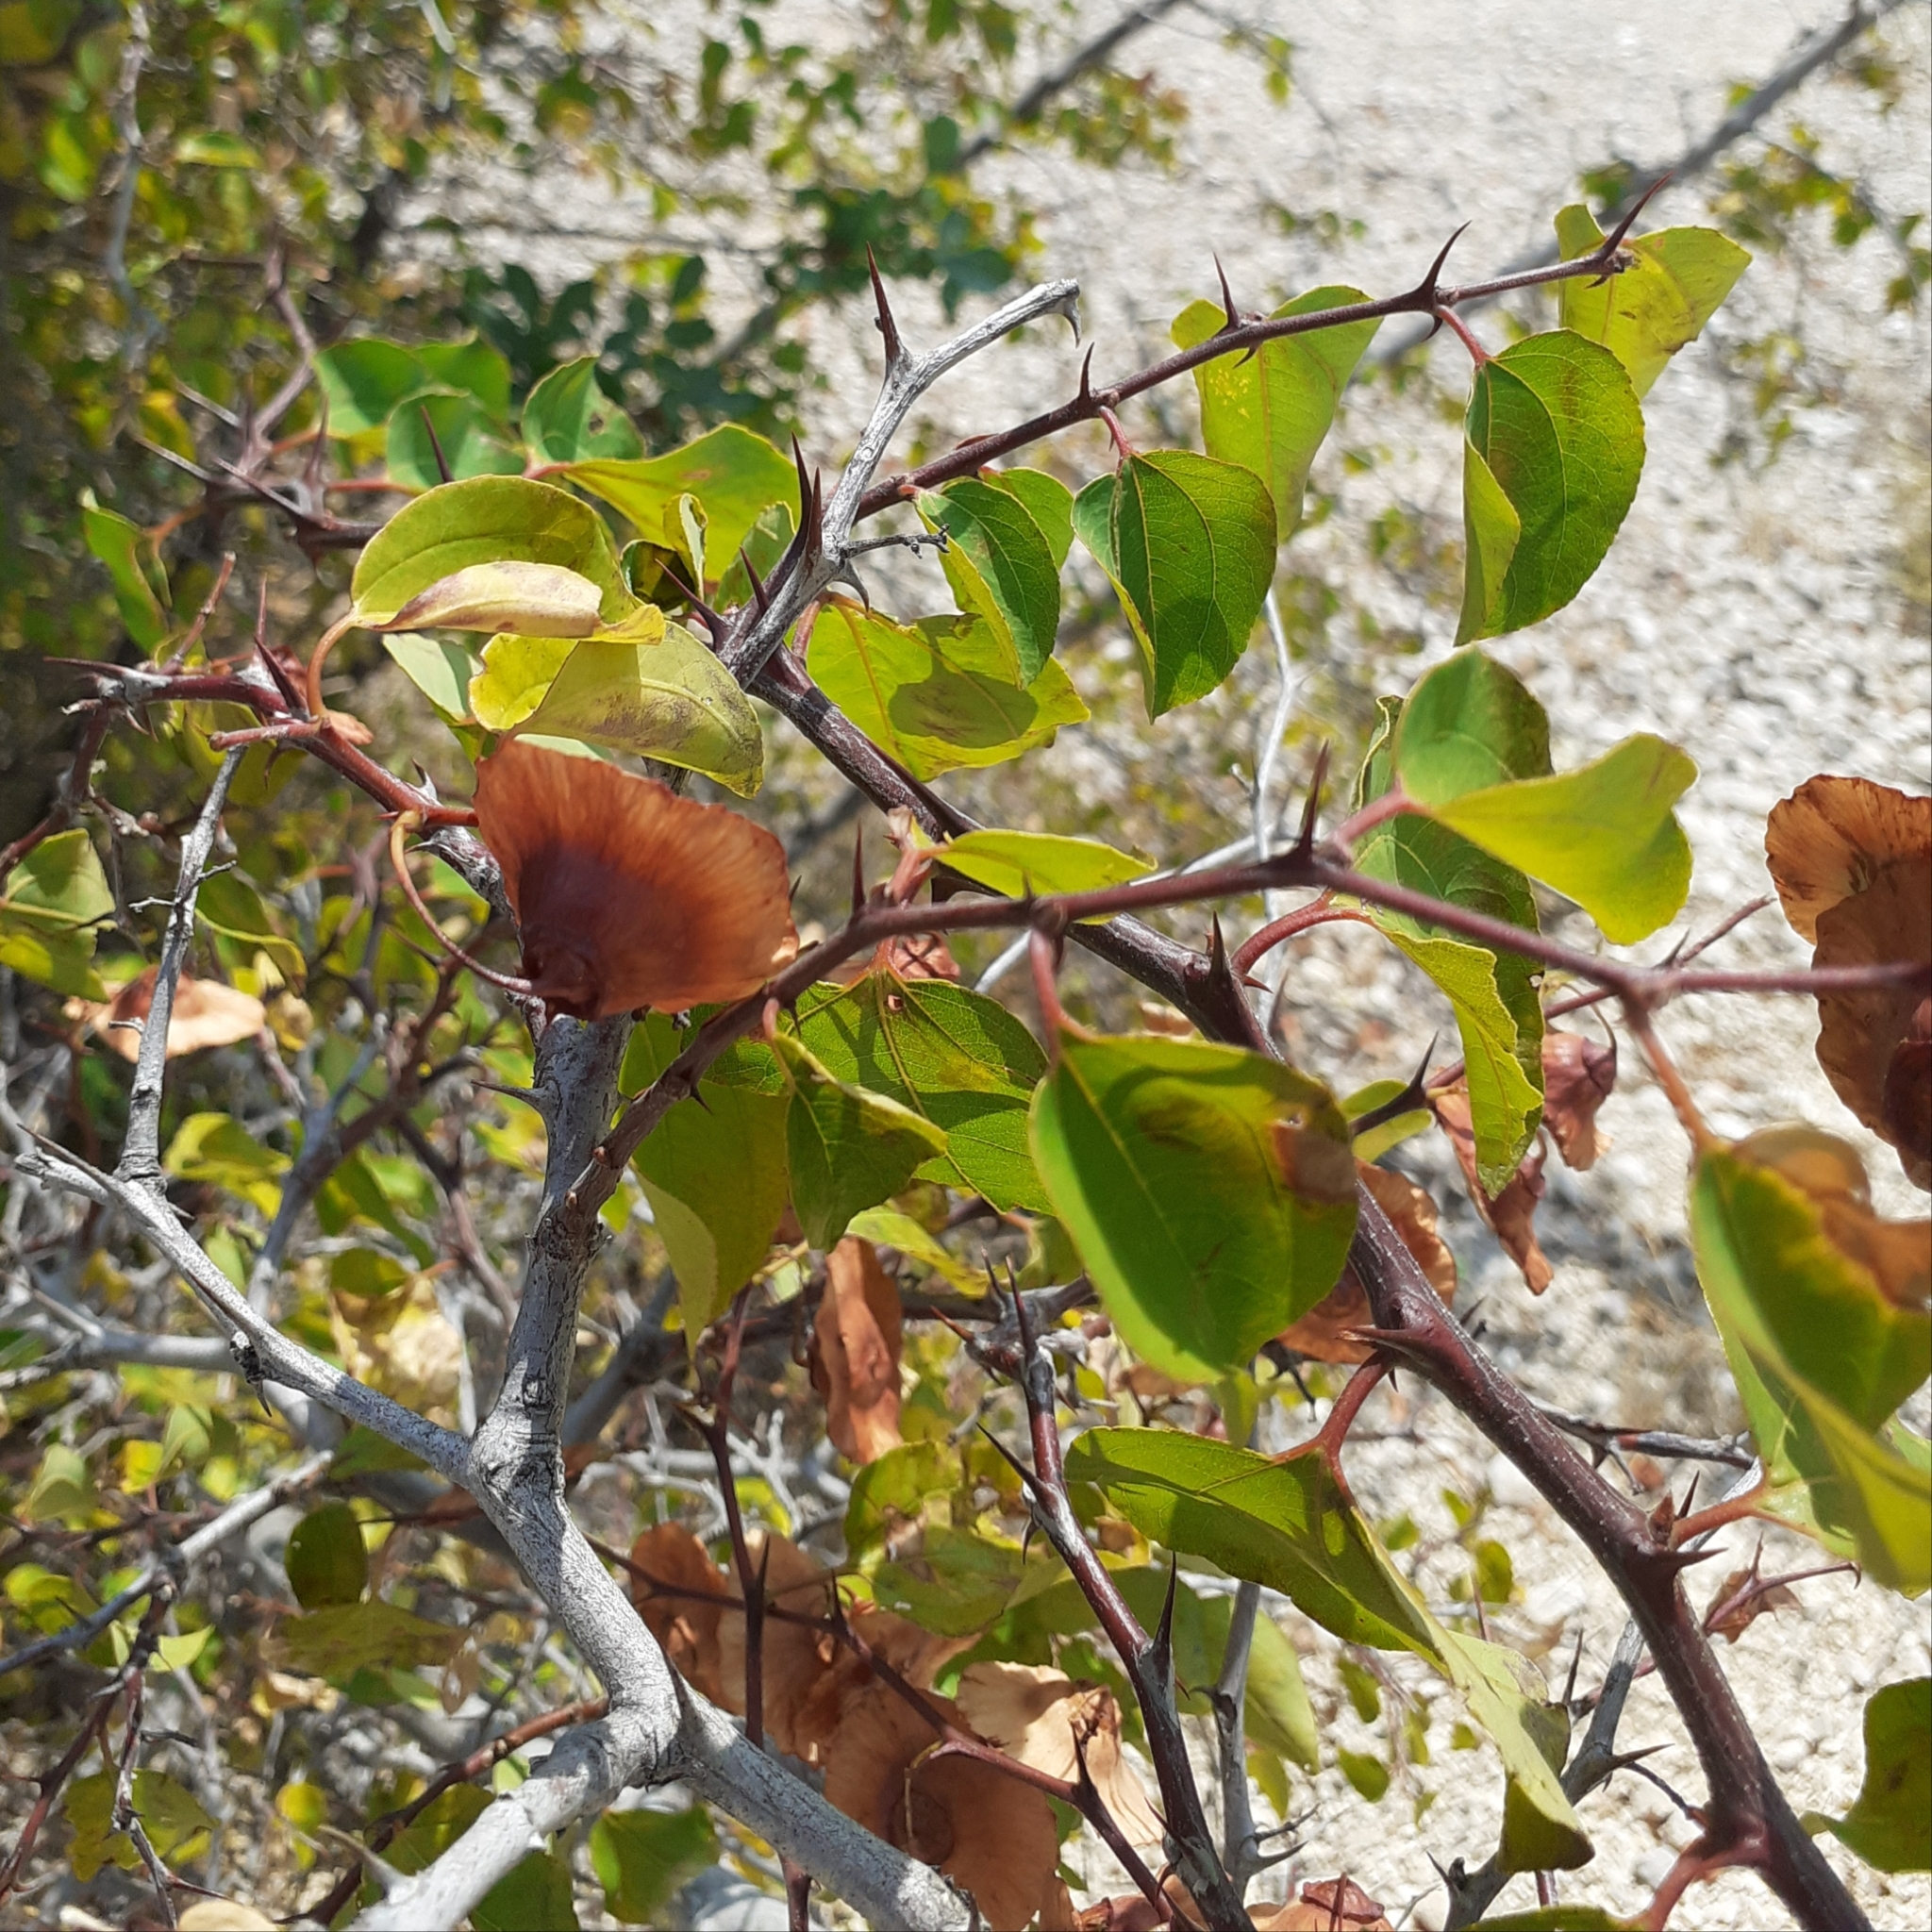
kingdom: Plantae
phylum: Tracheophyta
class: Magnoliopsida
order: Rosales
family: Rhamnaceae
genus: Paliurus
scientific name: Paliurus spina-christi
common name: Jeruselem thorn
